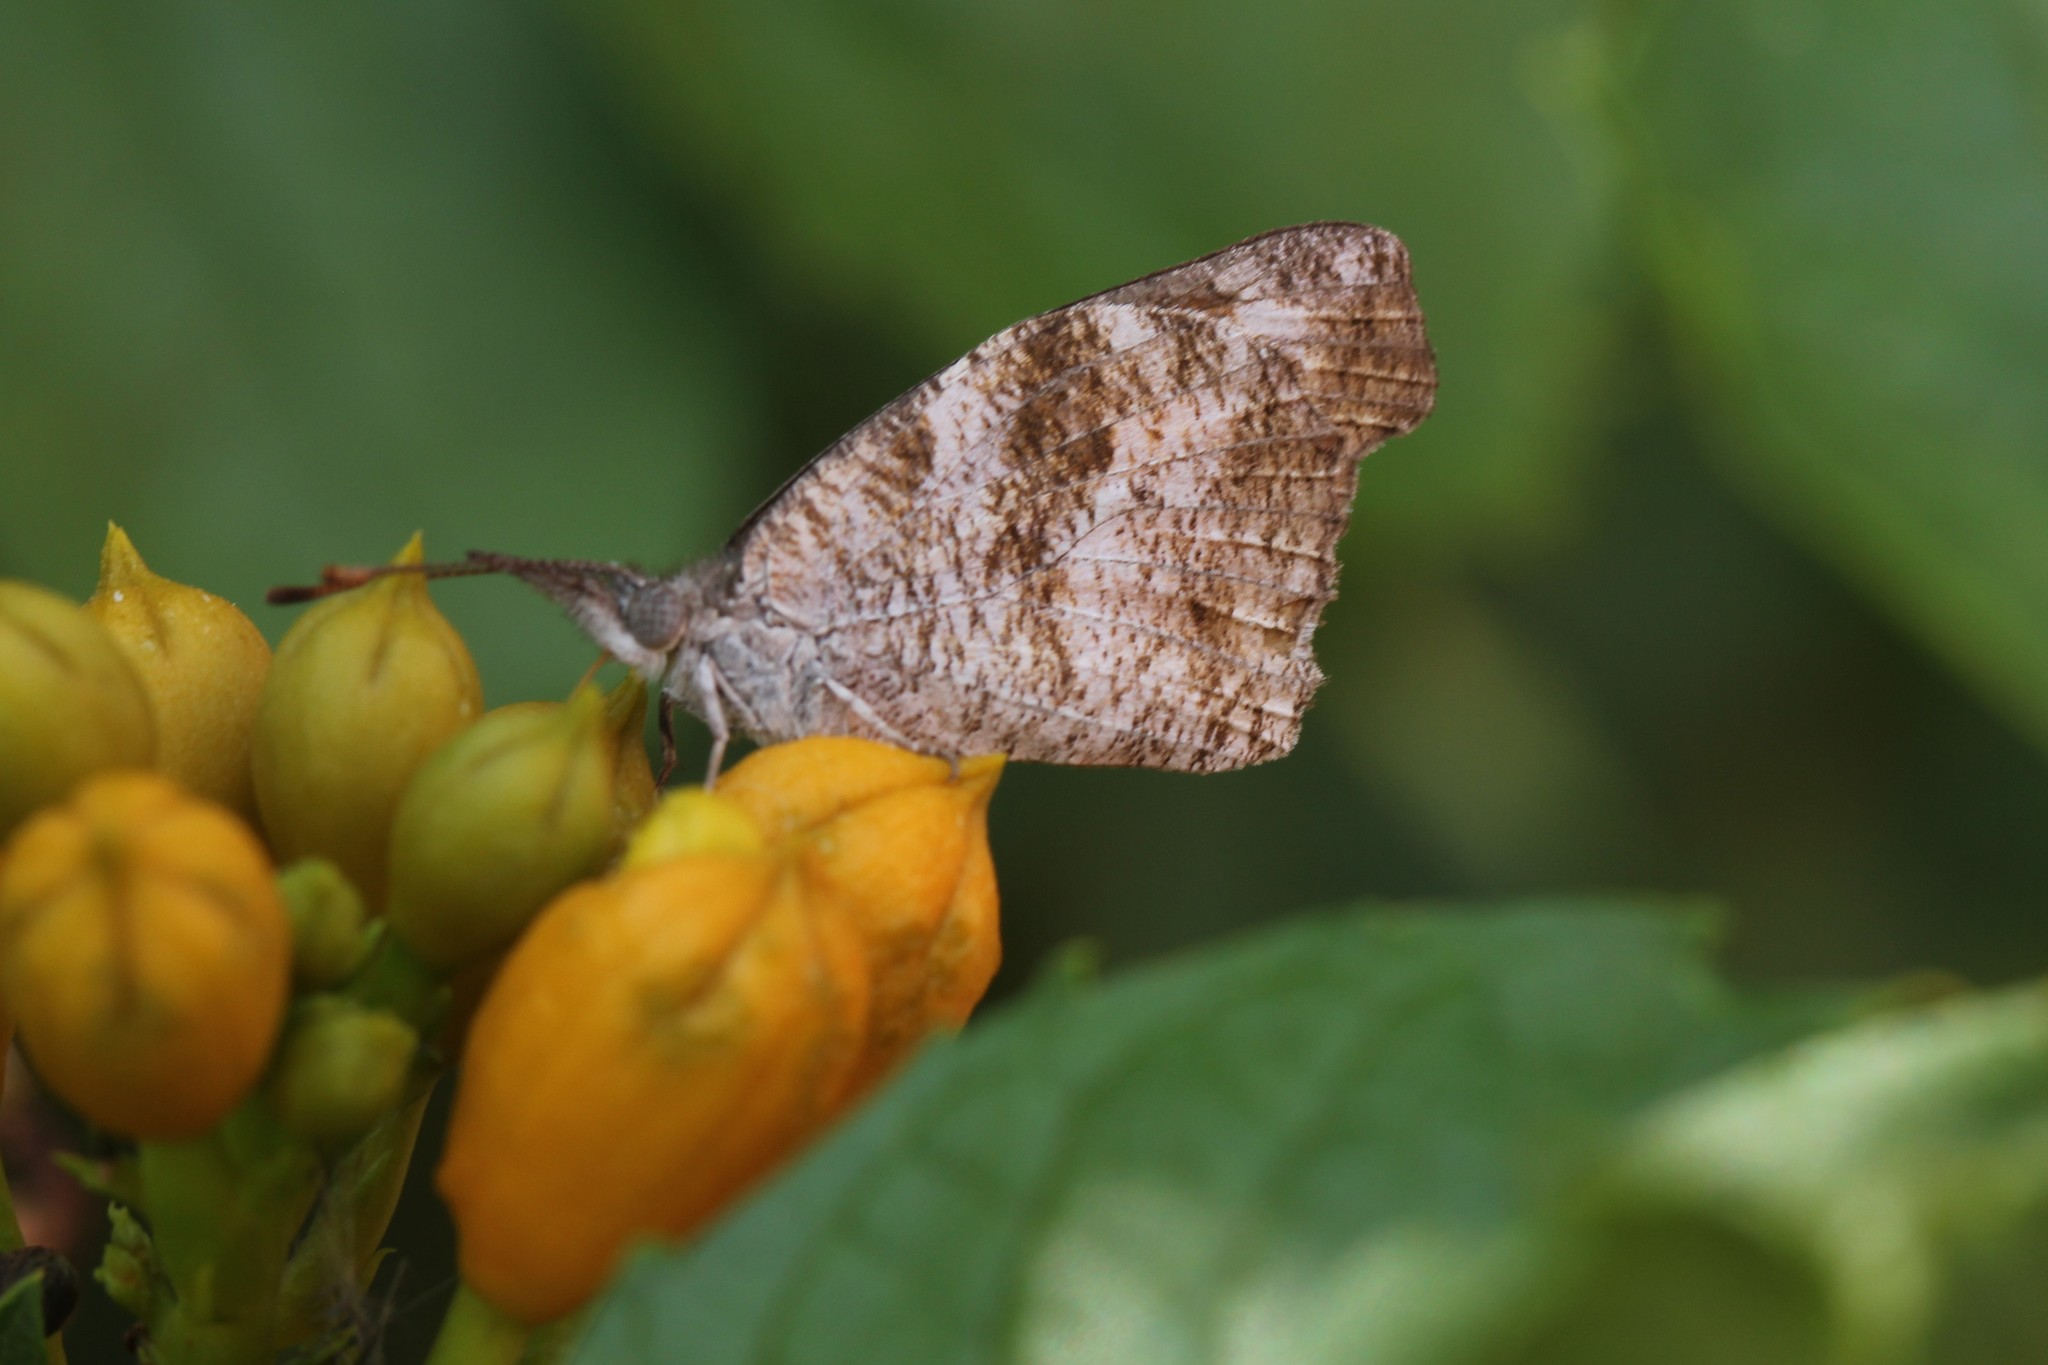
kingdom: Animalia
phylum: Arthropoda
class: Insecta
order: Lepidoptera
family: Nymphalidae
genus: Libytheana
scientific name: Libytheana carinenta
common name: American snout
